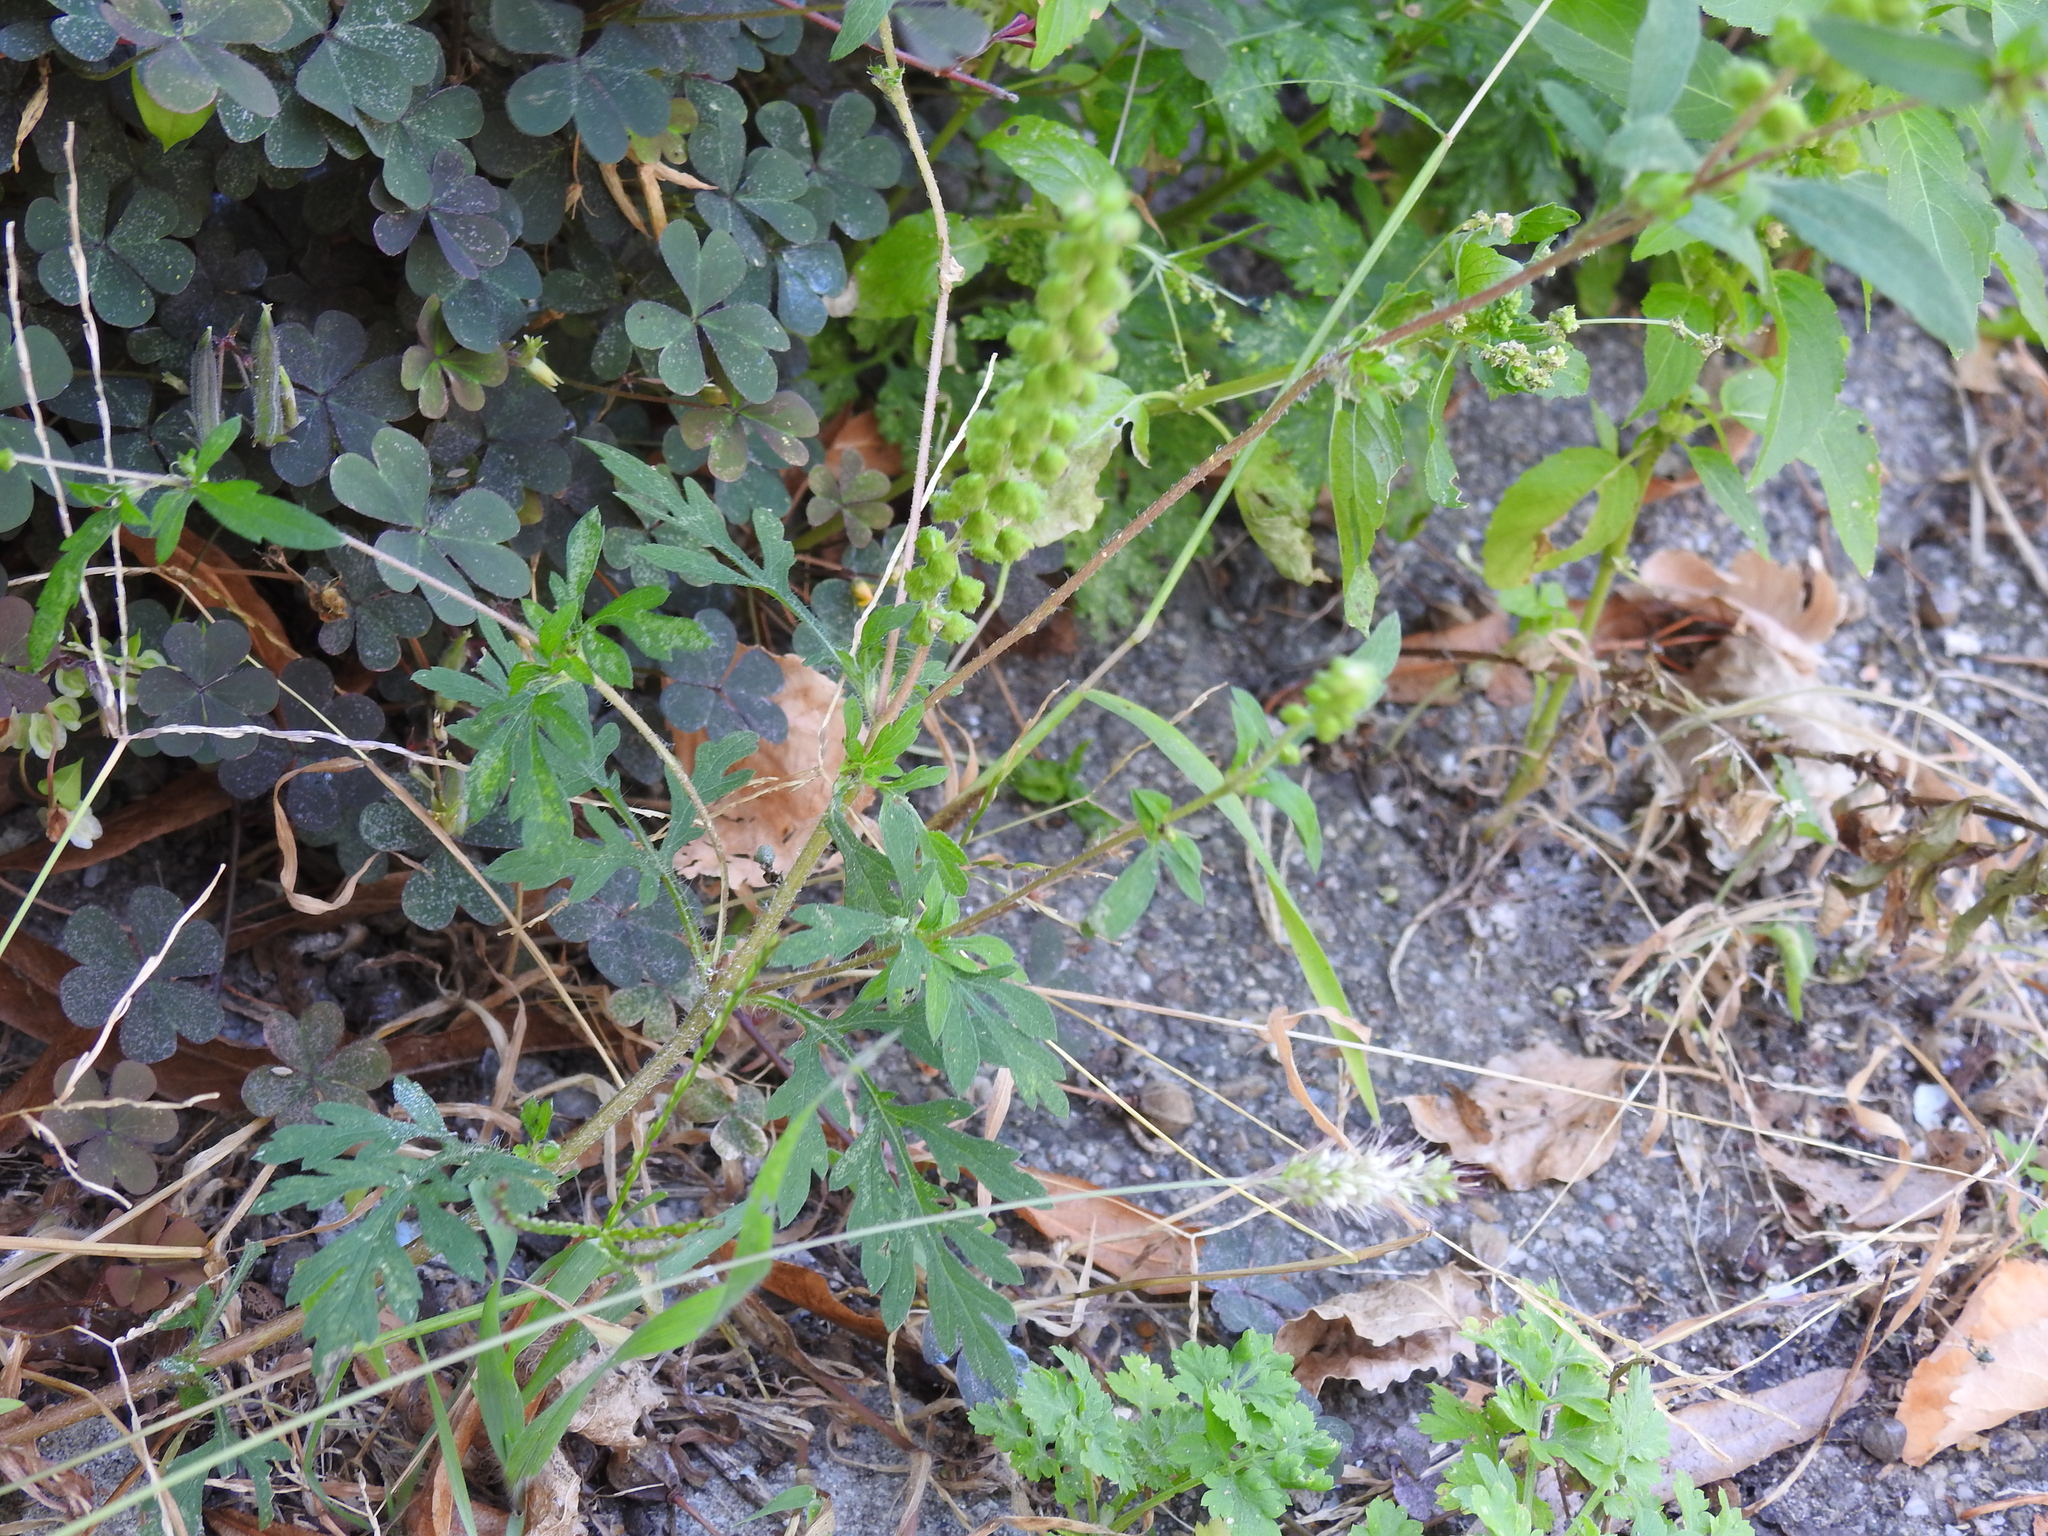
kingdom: Plantae
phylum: Tracheophyta
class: Magnoliopsida
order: Asterales
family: Asteraceae
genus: Ambrosia
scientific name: Ambrosia artemisiifolia
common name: Annual ragweed
